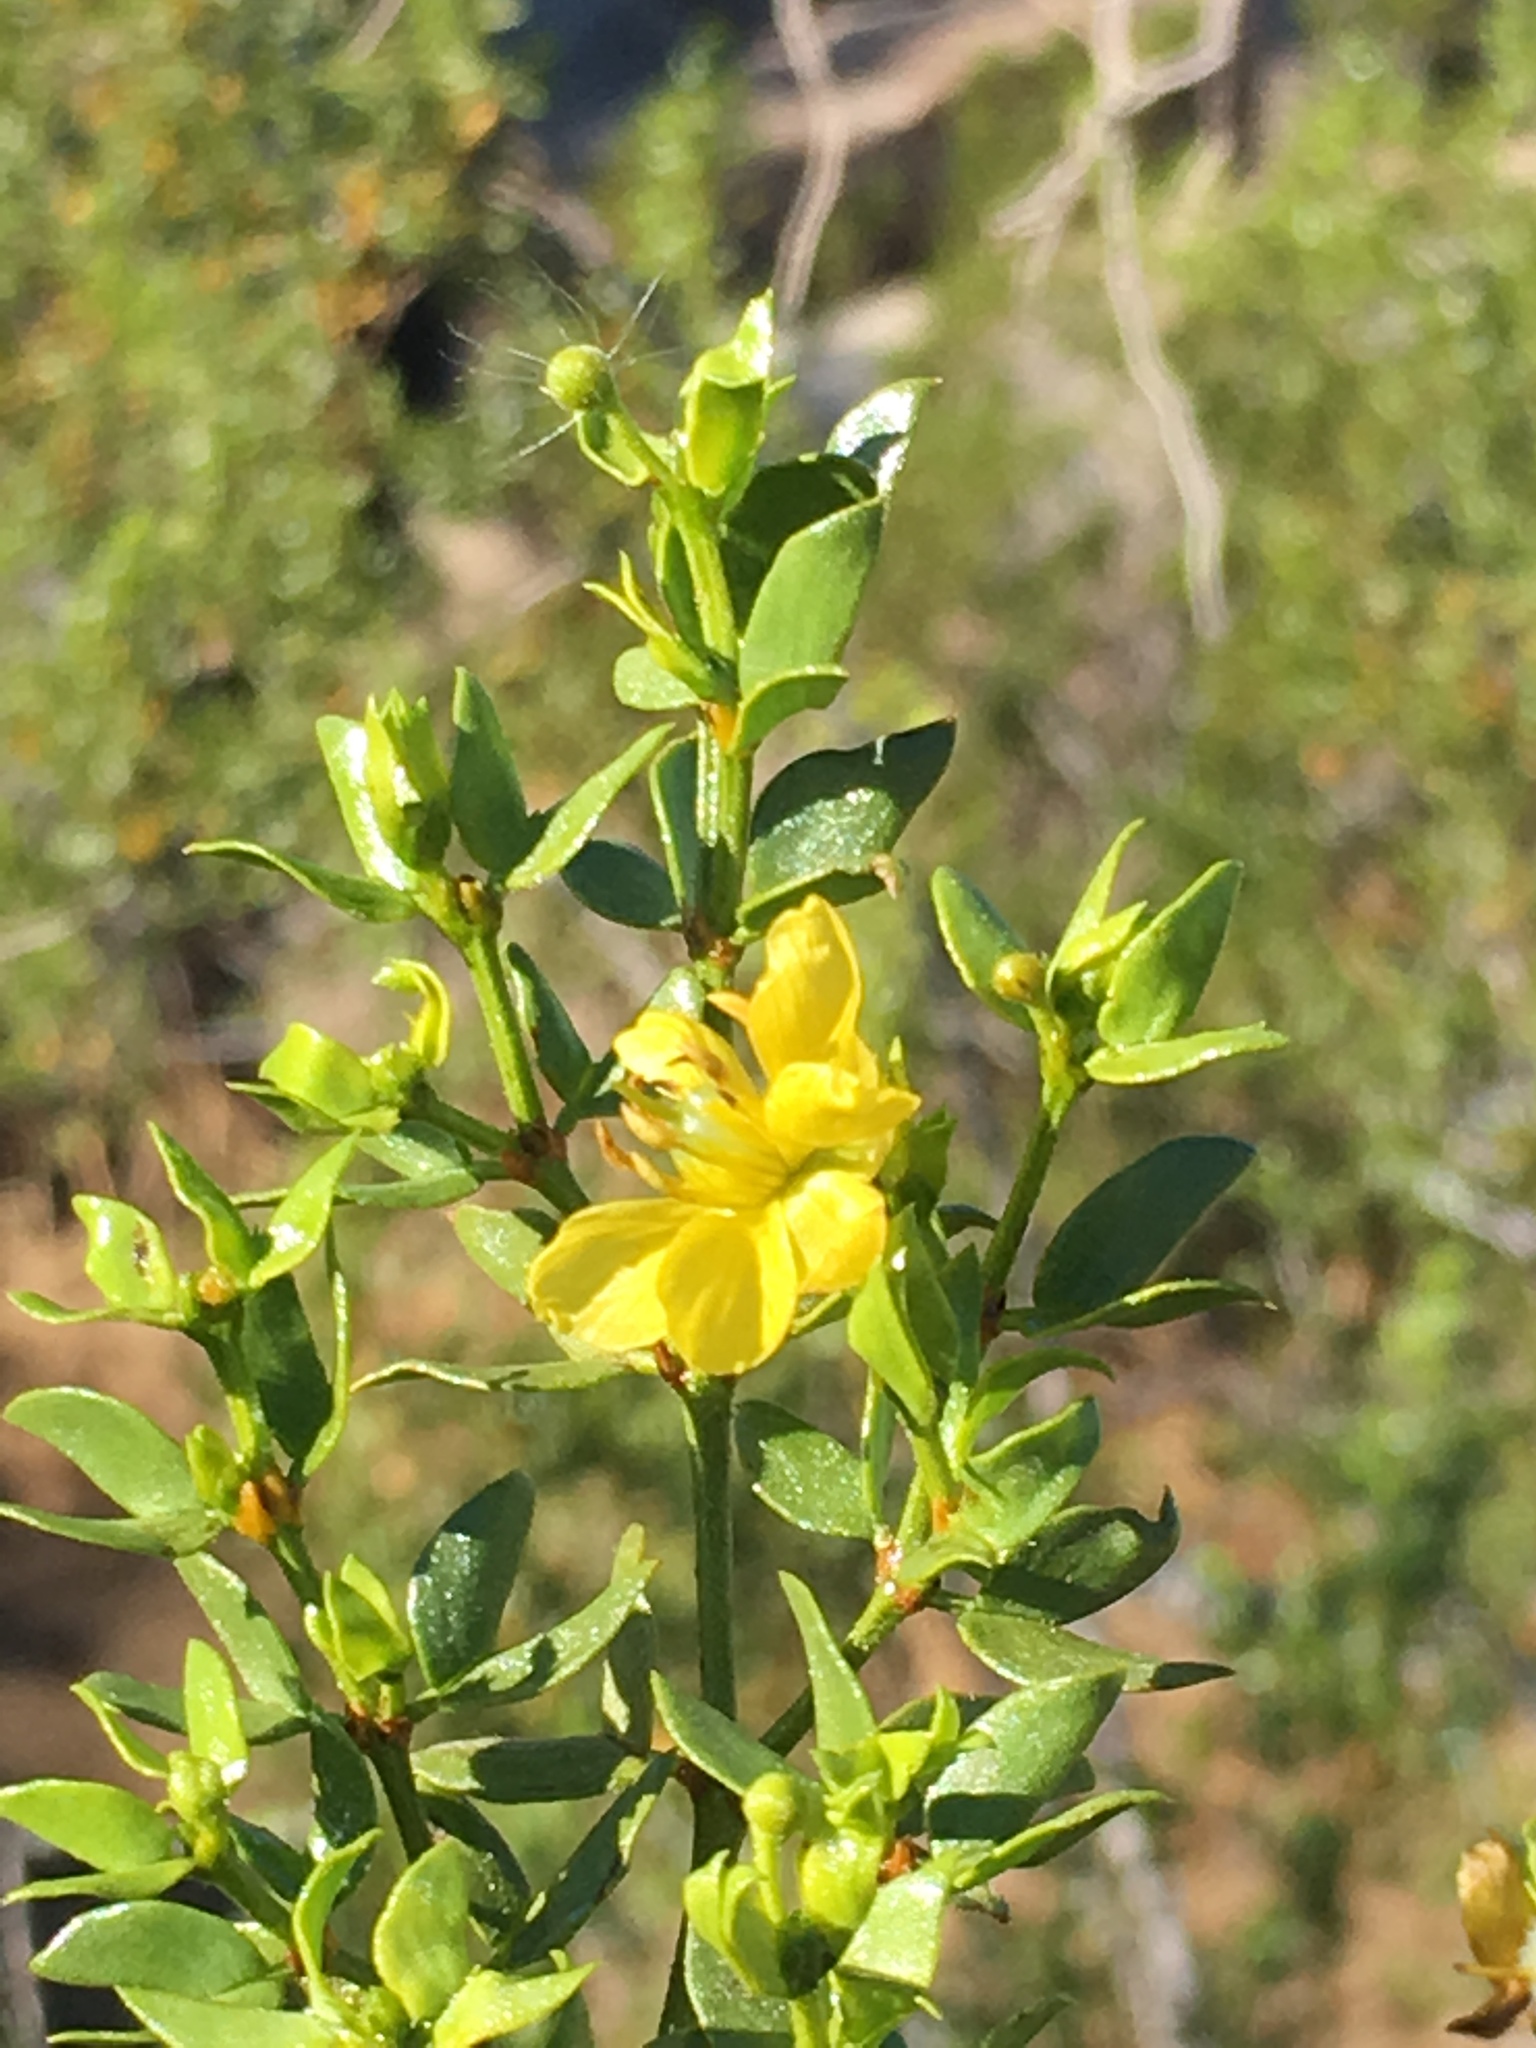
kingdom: Plantae
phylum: Tracheophyta
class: Magnoliopsida
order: Zygophyllales
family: Zygophyllaceae
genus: Larrea
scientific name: Larrea tridentata
